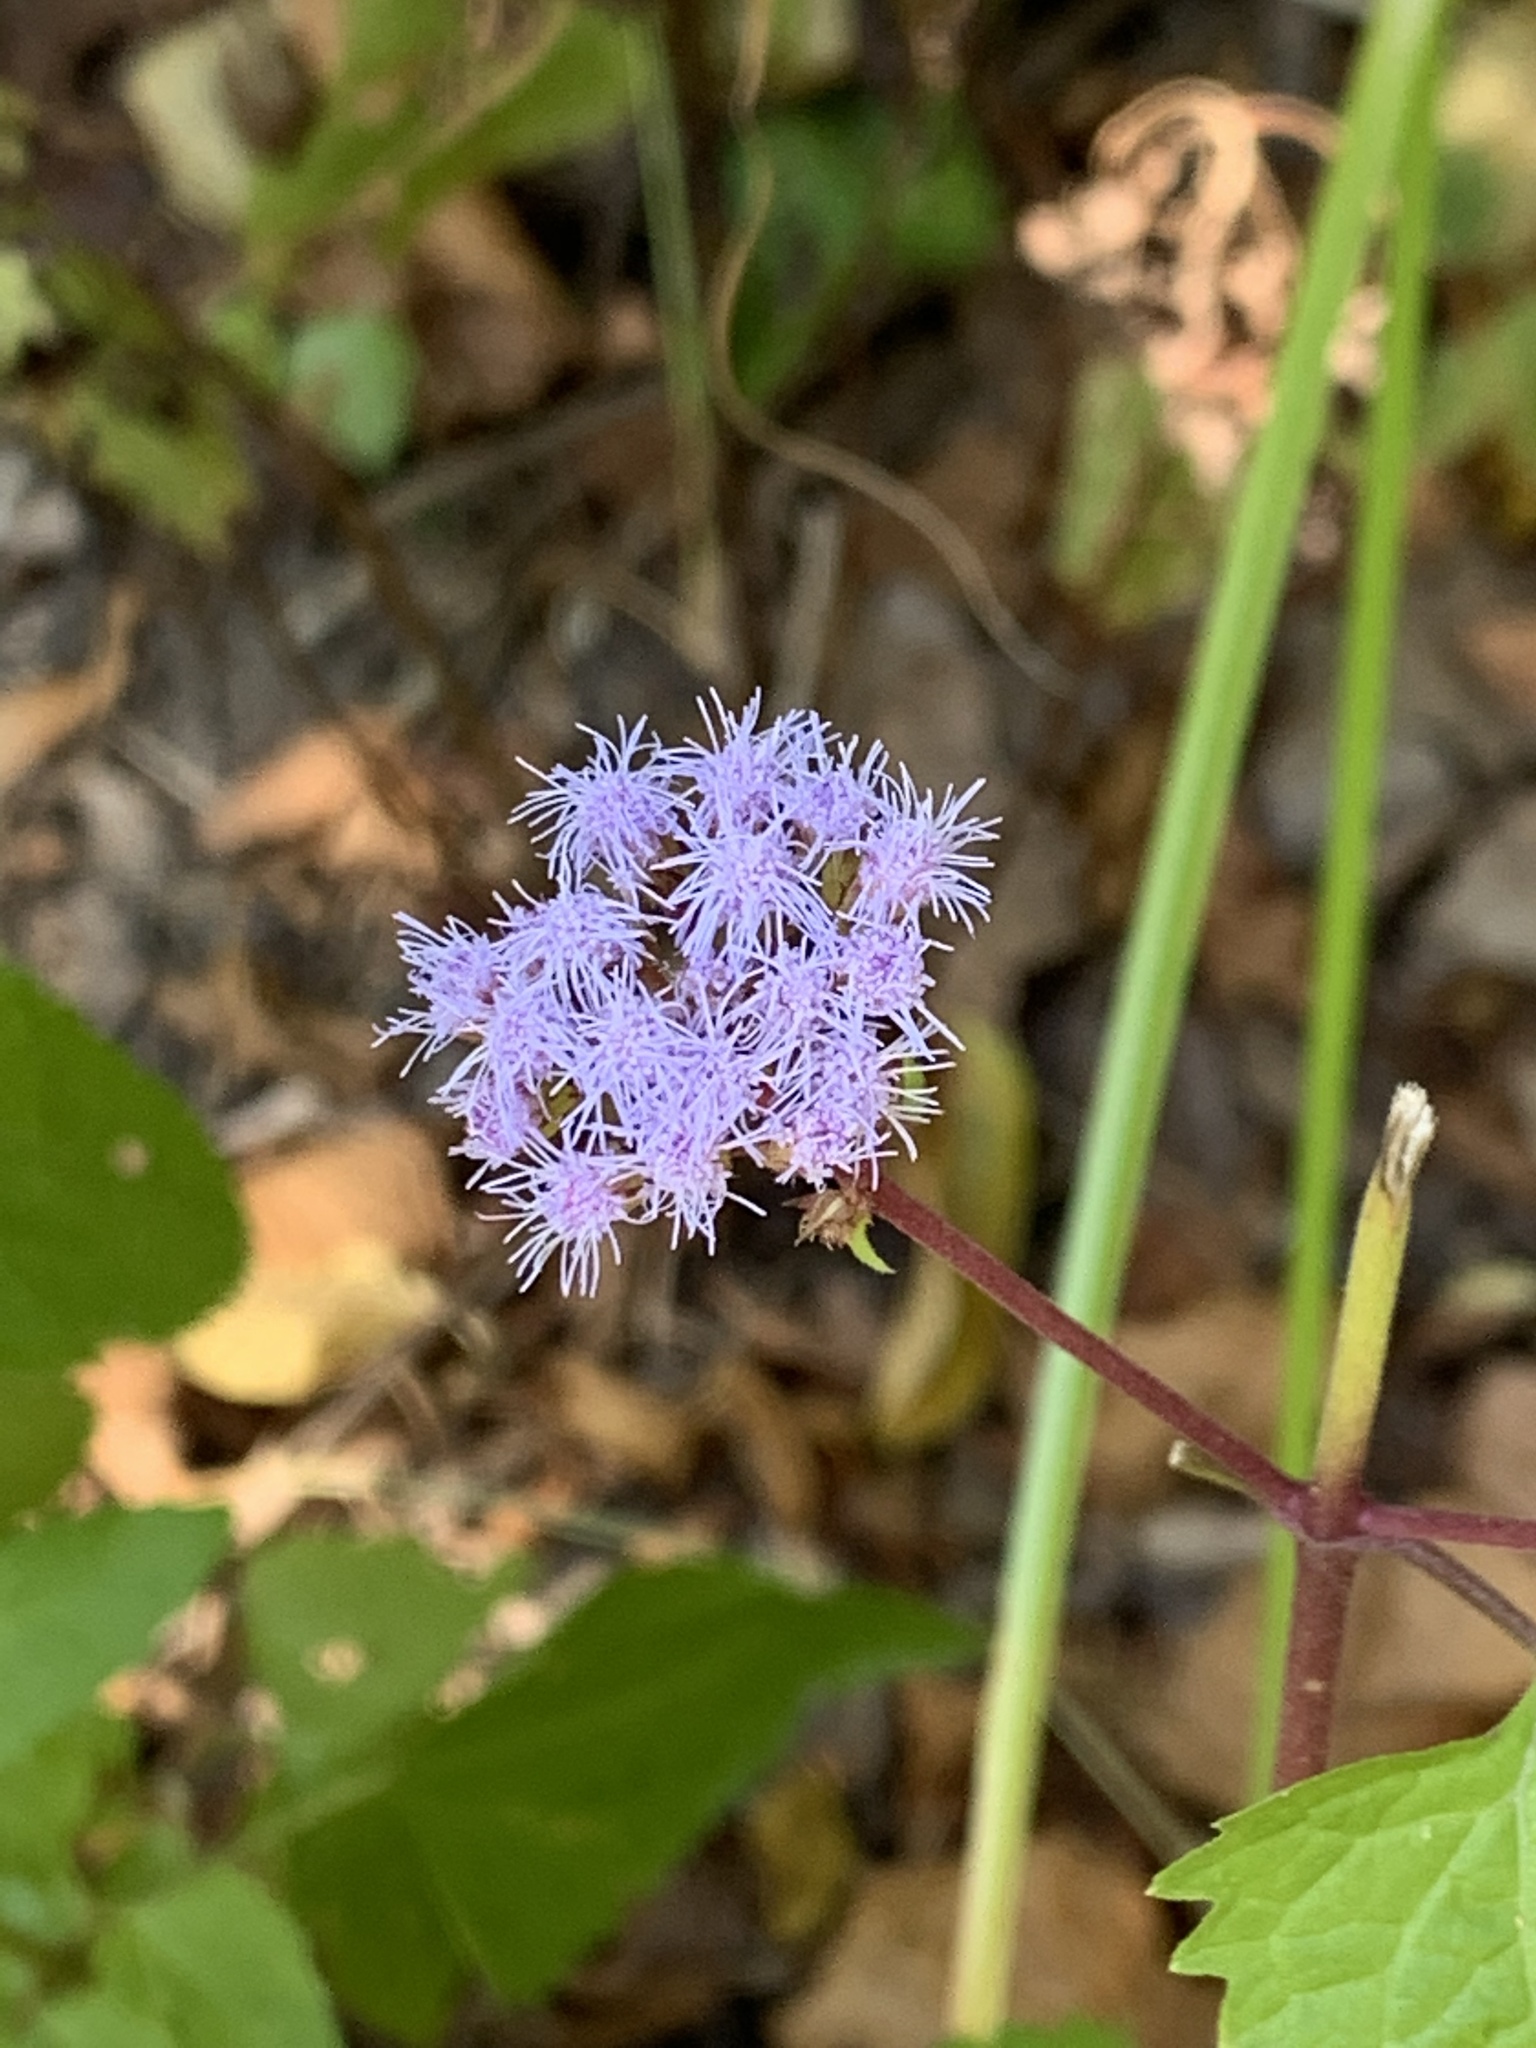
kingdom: Plantae
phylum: Tracheophyta
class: Magnoliopsida
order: Asterales
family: Asteraceae
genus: Conoclinium
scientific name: Conoclinium coelestinum
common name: Blue mistflower
